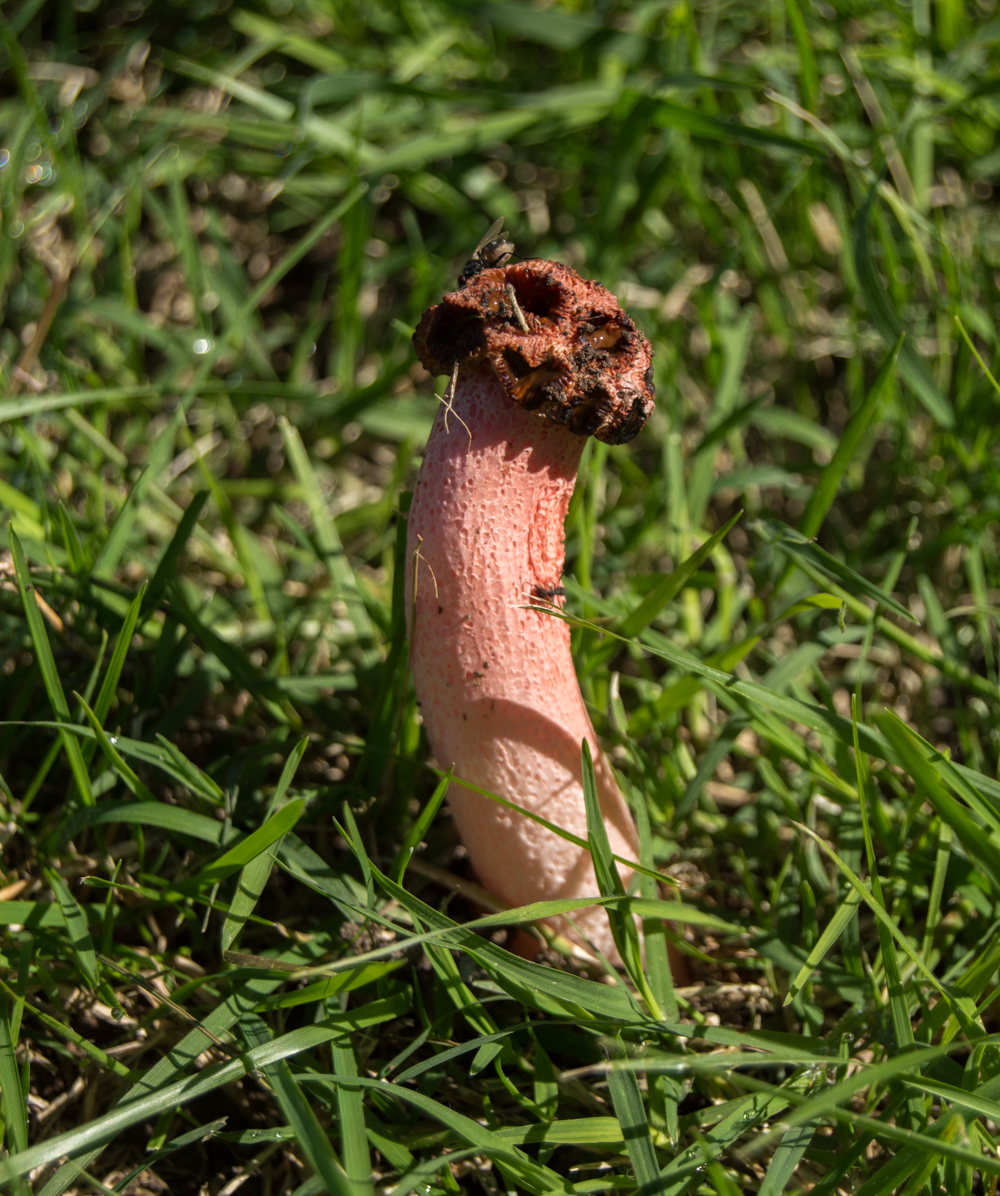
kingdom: Fungi
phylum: Basidiomycota
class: Agaricomycetes
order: Phallales
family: Phallaceae
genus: Lysurus
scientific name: Lysurus periphragmoides
